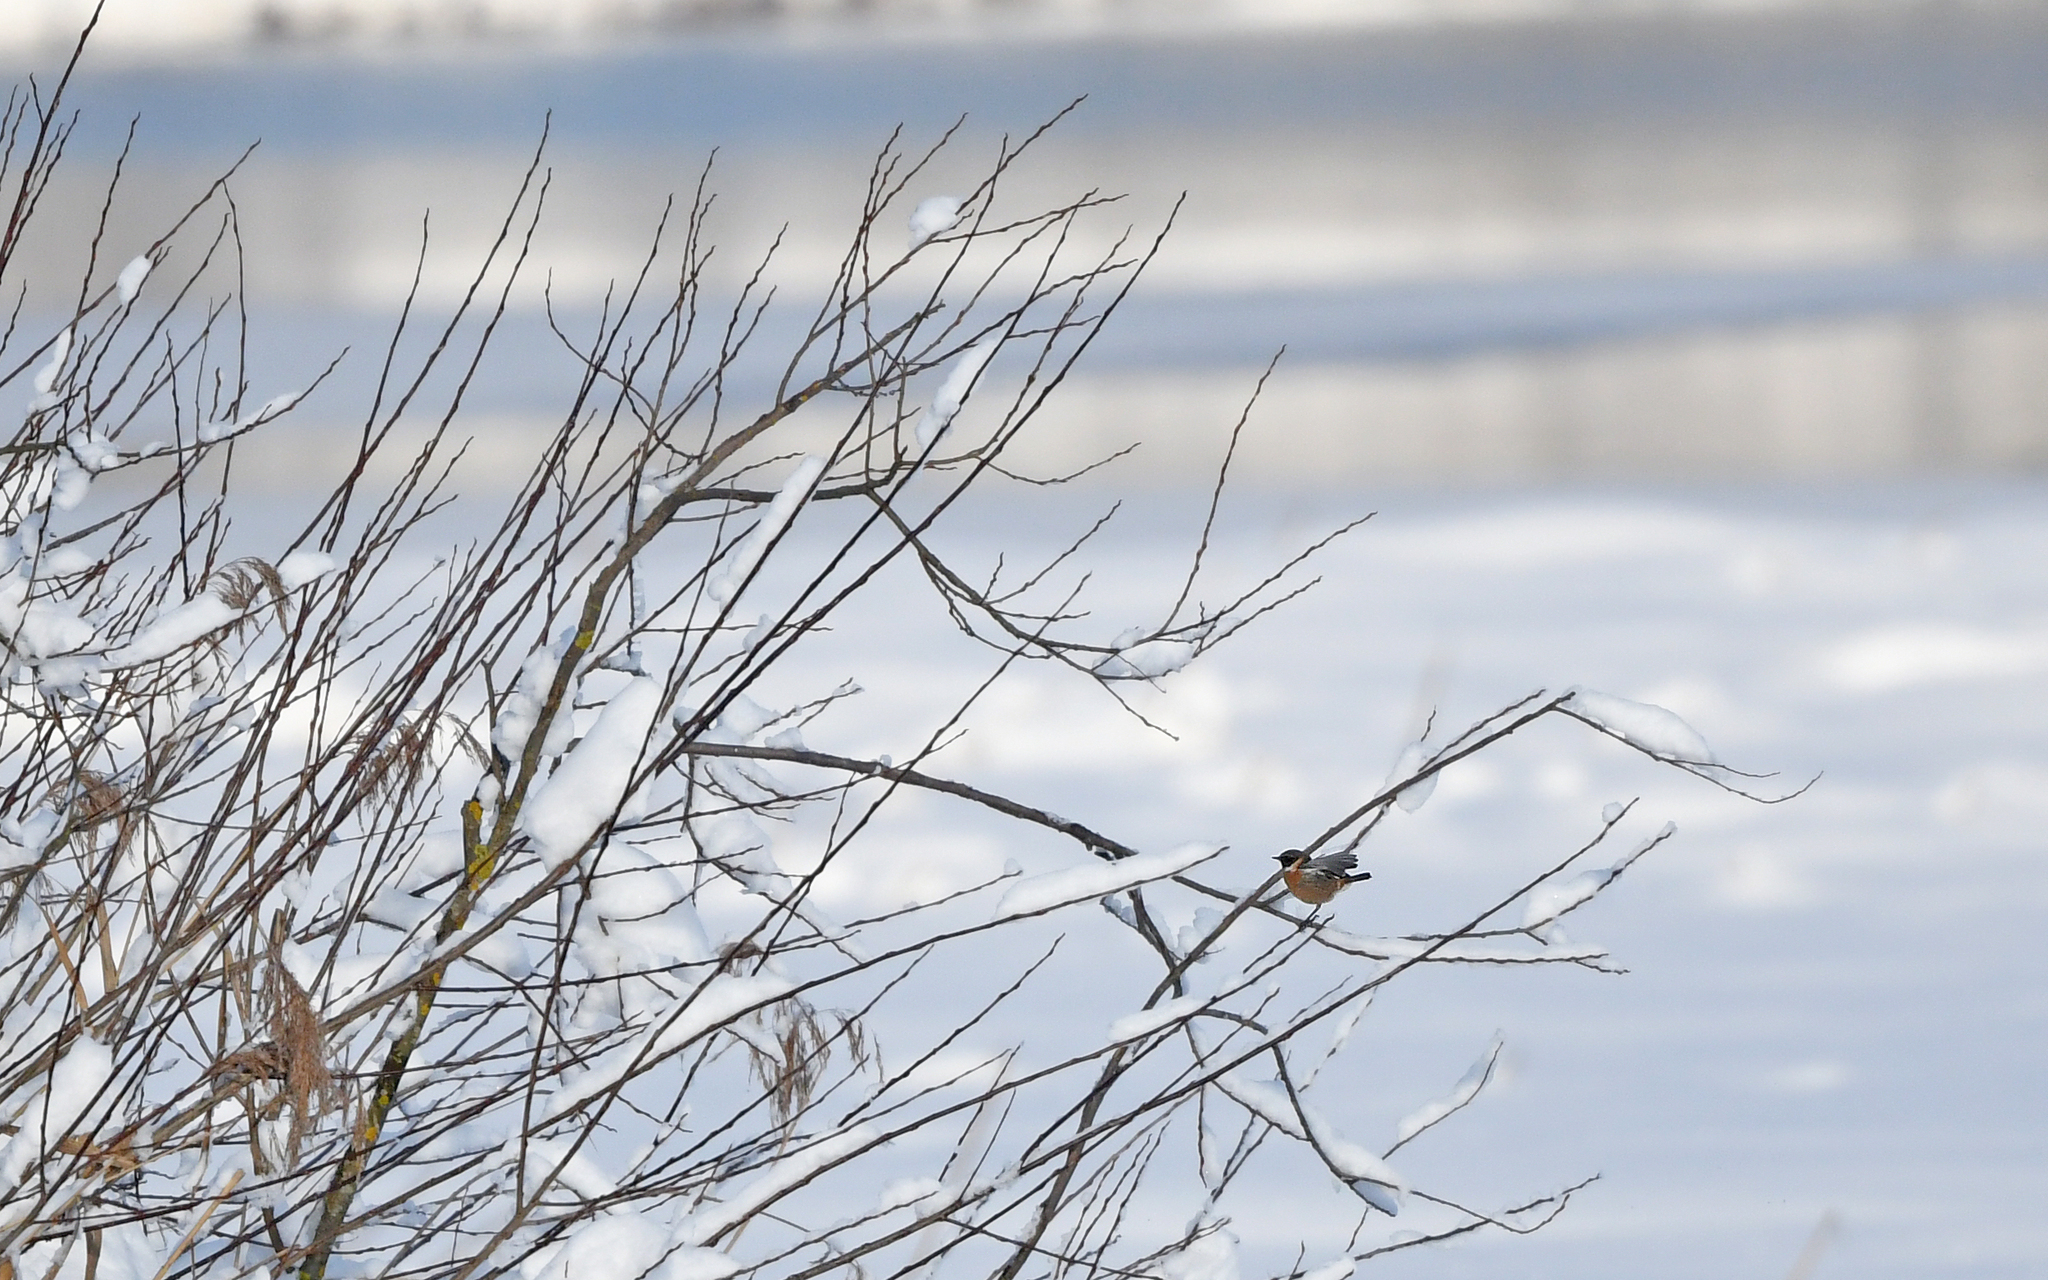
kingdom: Animalia
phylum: Chordata
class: Aves
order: Passeriformes
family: Muscicapidae
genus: Saxicola
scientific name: Saxicola rubicola
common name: European stonechat
